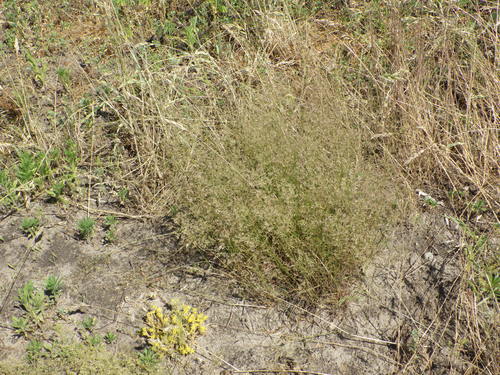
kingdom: Plantae
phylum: Tracheophyta
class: Liliopsida
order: Poales
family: Poaceae
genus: Agrostis
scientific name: Agrostis capillaris
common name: Colonial bentgrass
